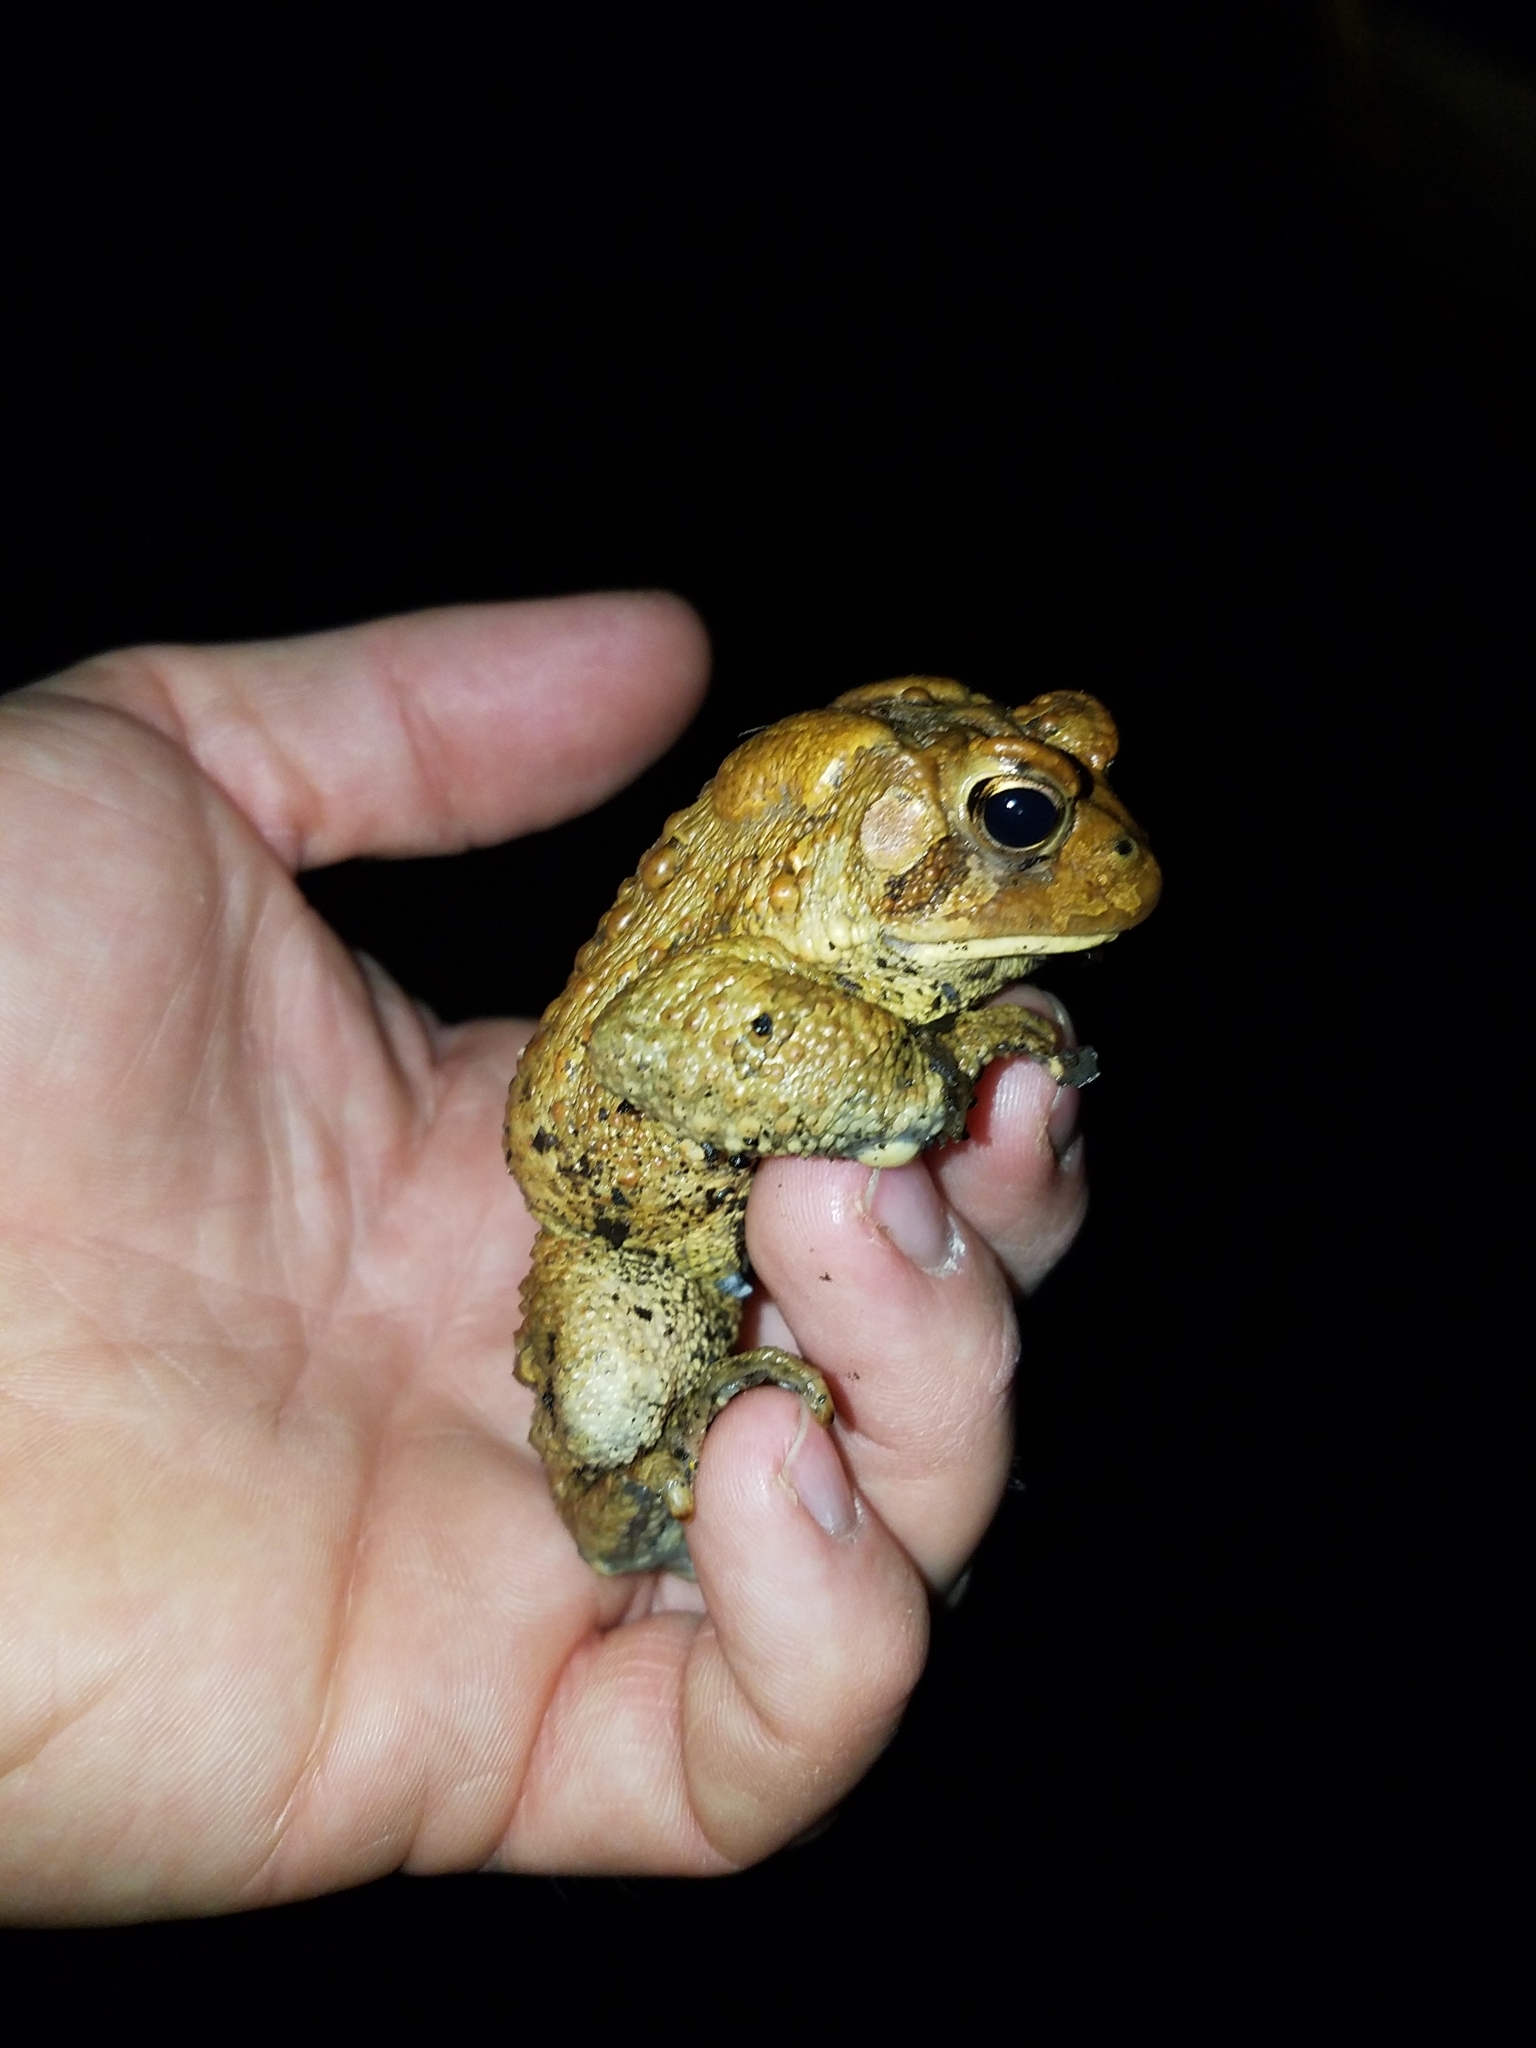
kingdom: Animalia
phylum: Chordata
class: Amphibia
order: Anura
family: Bufonidae
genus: Anaxyrus
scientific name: Anaxyrus americanus
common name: American toad
